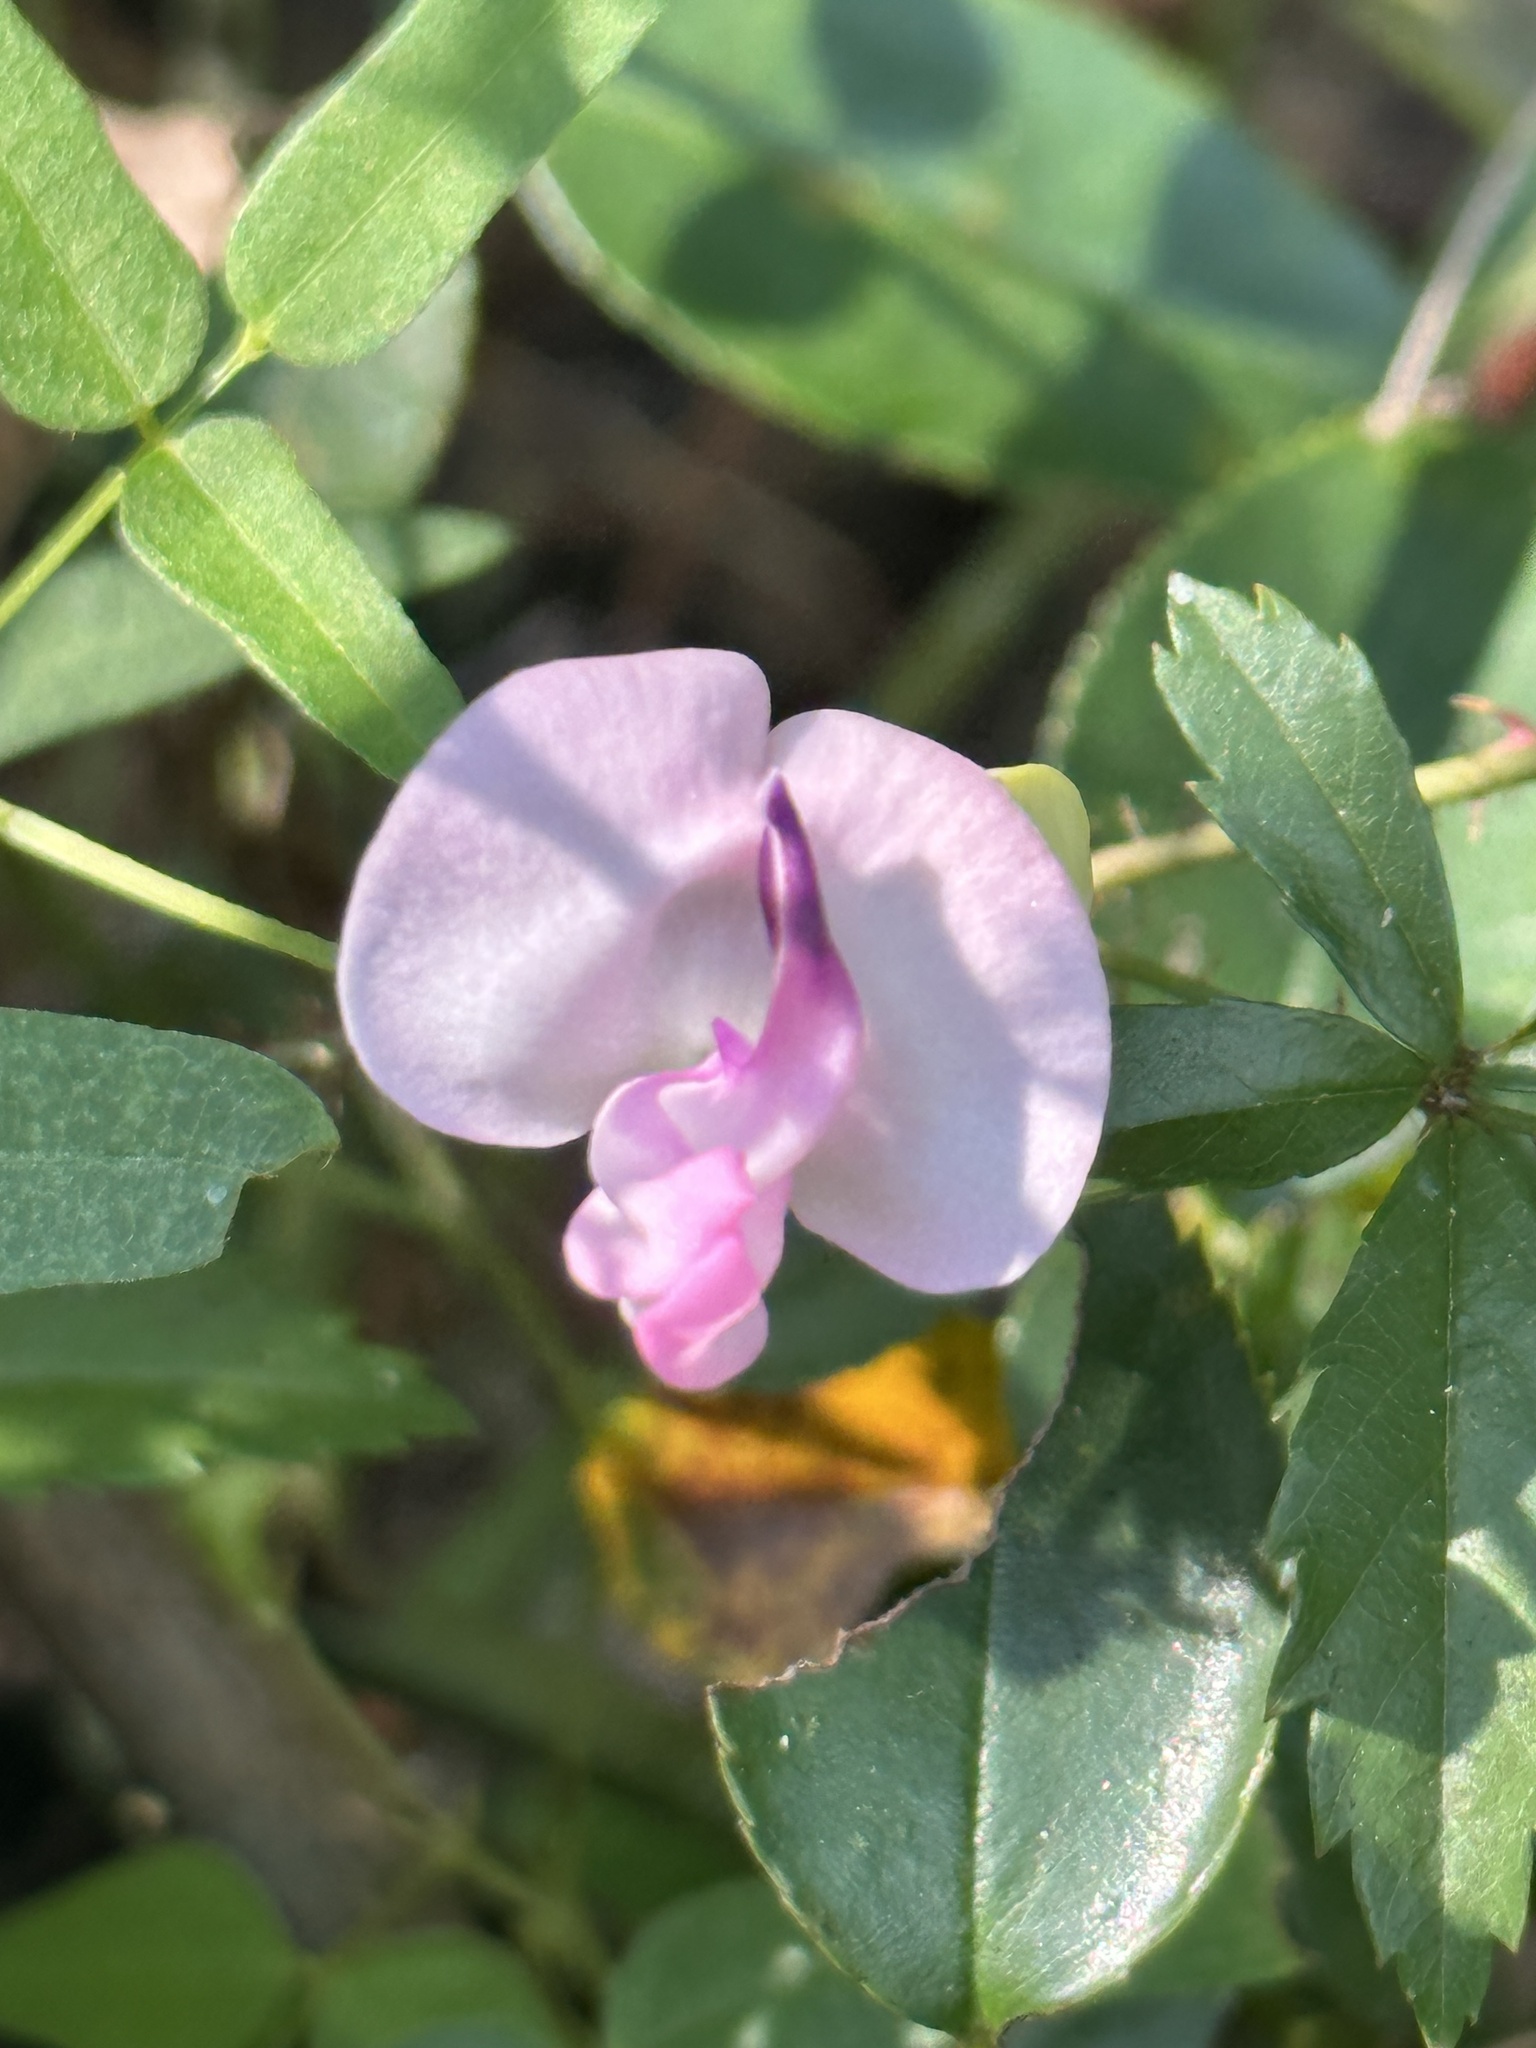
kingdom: Plantae
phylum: Tracheophyta
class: Magnoliopsida
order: Fabales
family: Fabaceae
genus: Strophostyles
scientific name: Strophostyles umbellata
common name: Perennial wild bean
